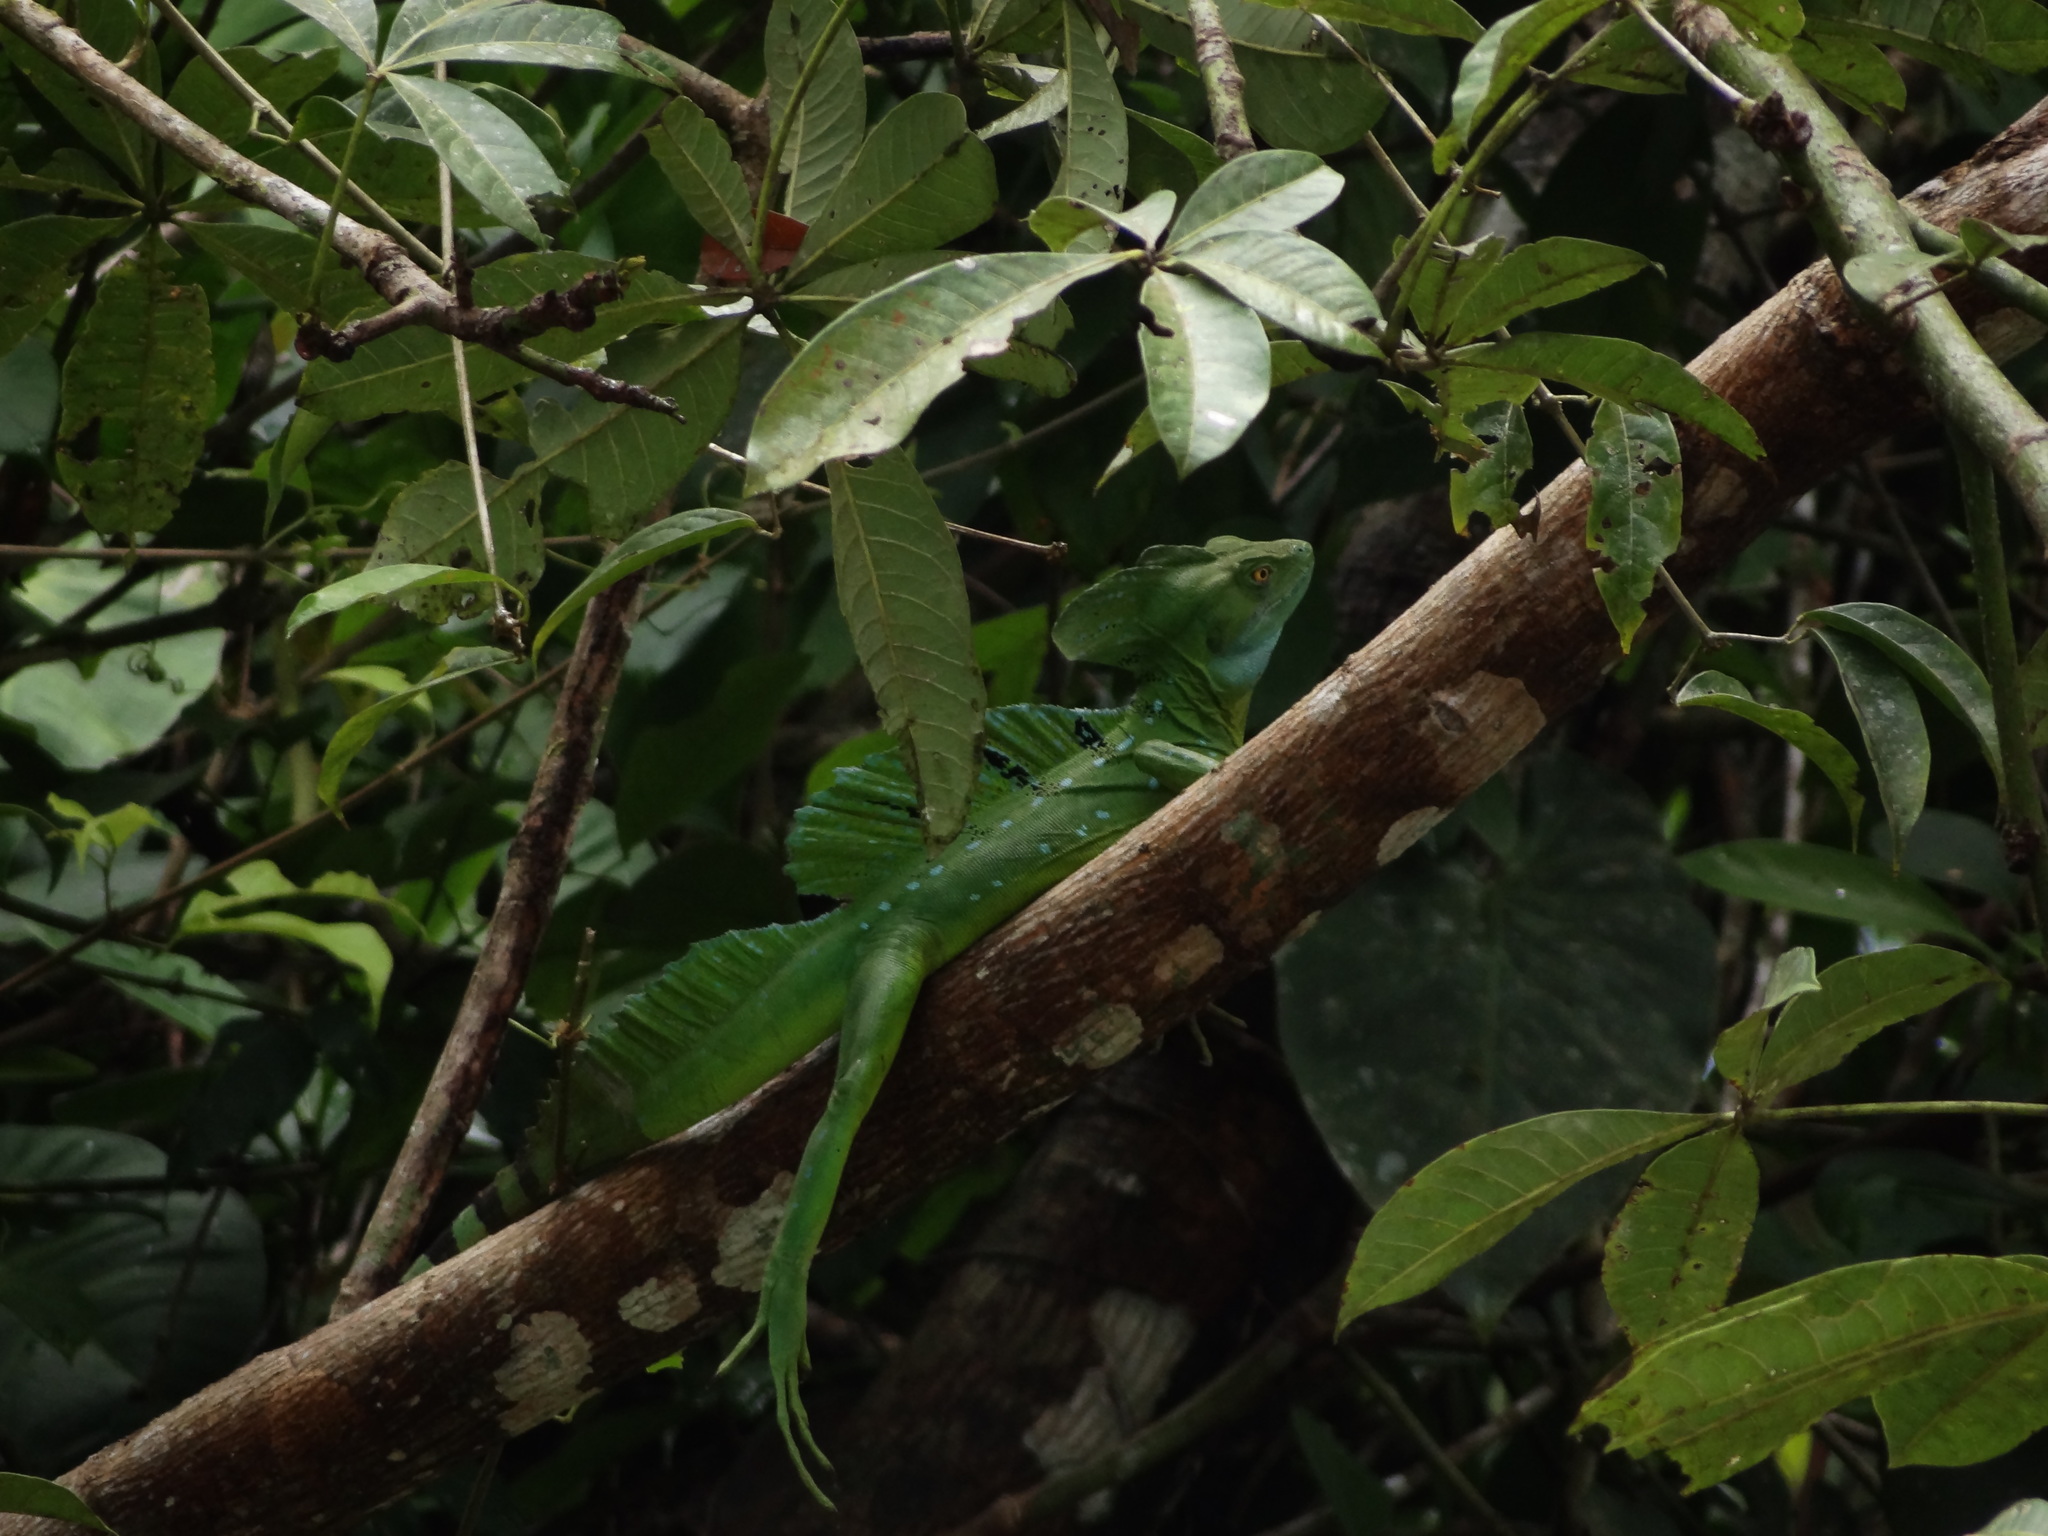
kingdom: Animalia
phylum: Chordata
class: Squamata
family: Corytophanidae
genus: Basiliscus
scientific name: Basiliscus plumifrons
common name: Green basilisk
